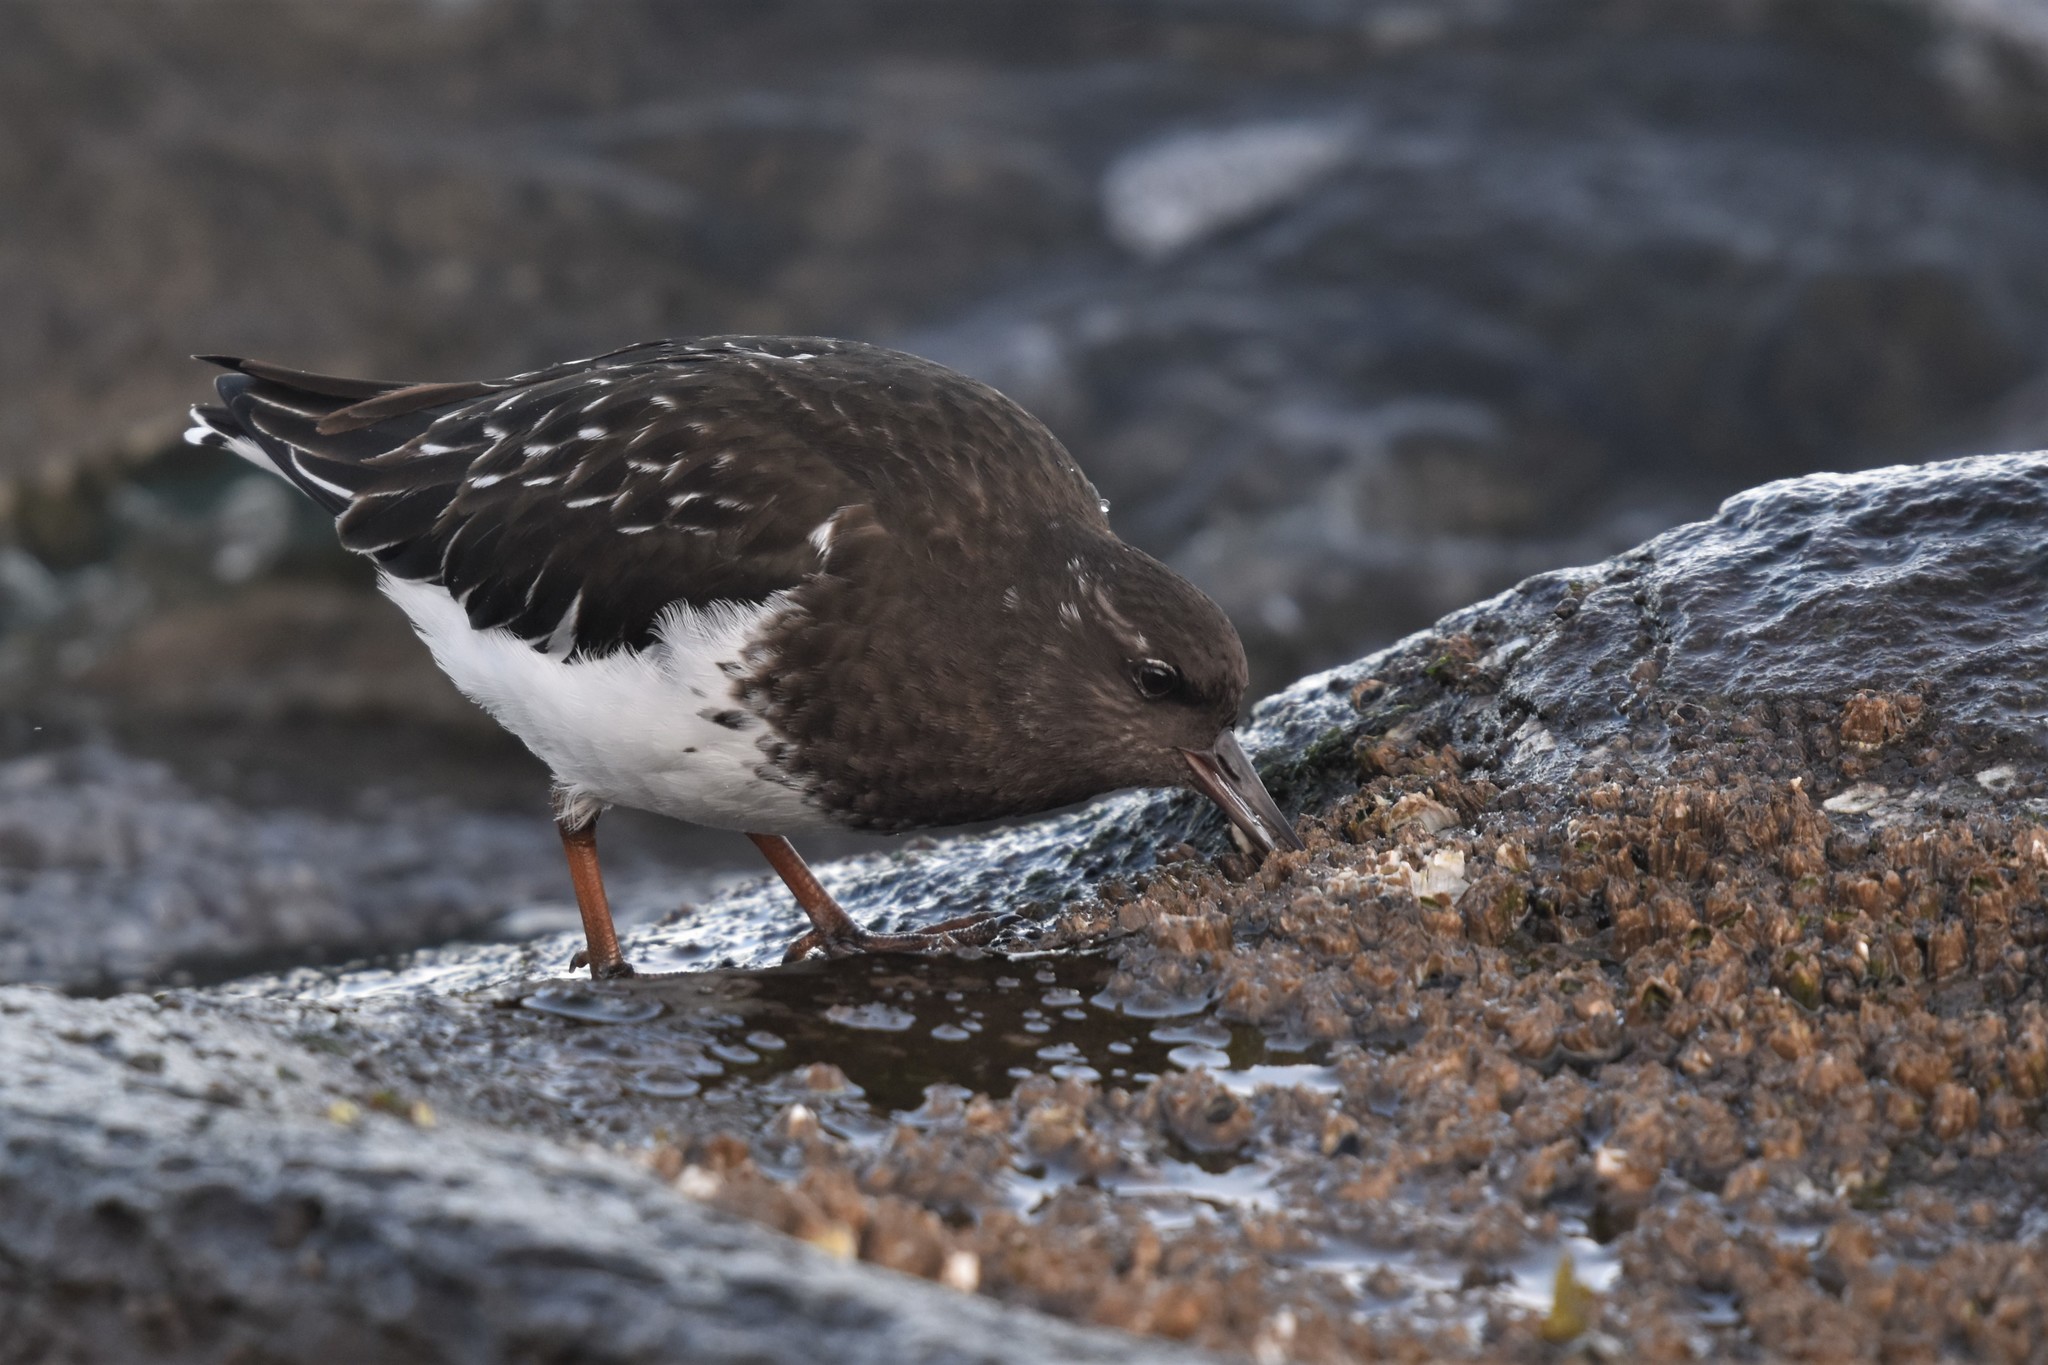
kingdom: Animalia
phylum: Chordata
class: Aves
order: Charadriiformes
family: Scolopacidae
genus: Arenaria
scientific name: Arenaria melanocephala
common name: Black turnstone
